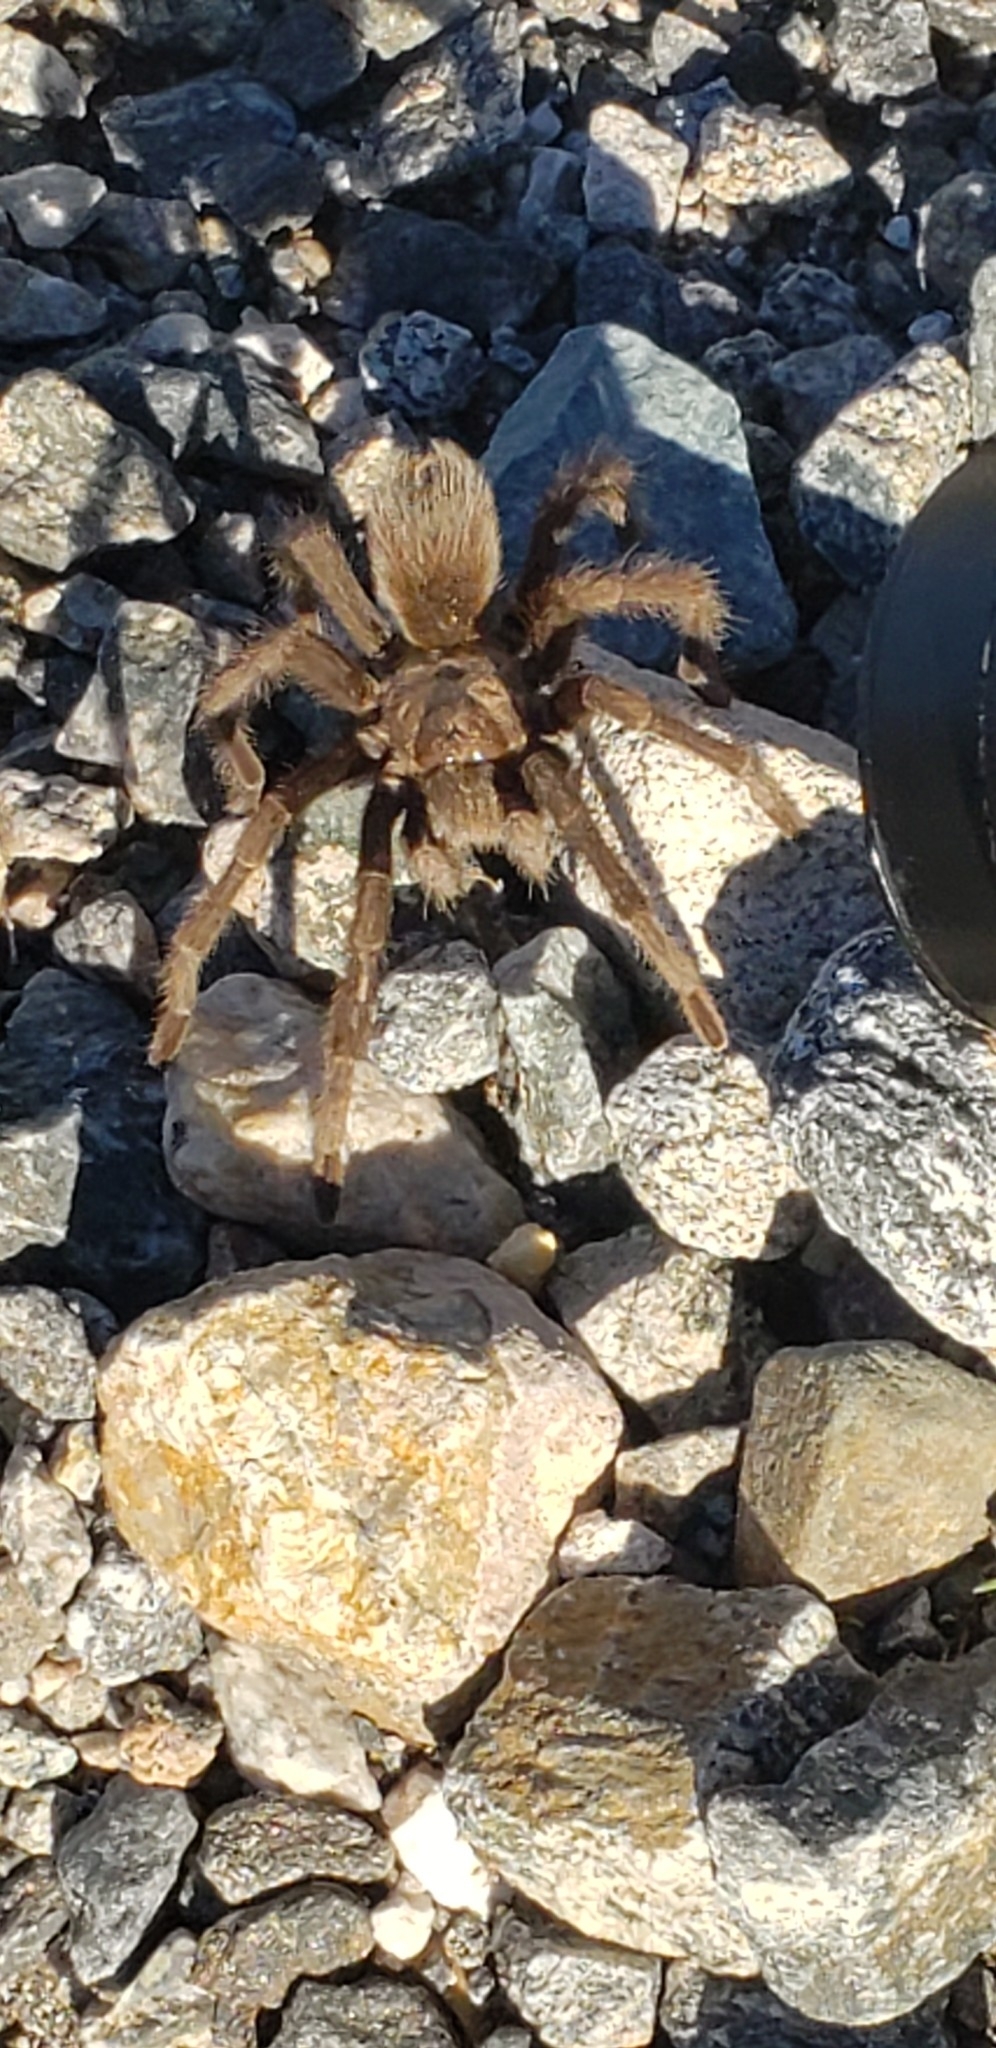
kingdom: Animalia
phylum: Arthropoda
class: Arachnida
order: Araneae
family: Theraphosidae
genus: Aphonopelma
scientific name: Aphonopelma iodius
